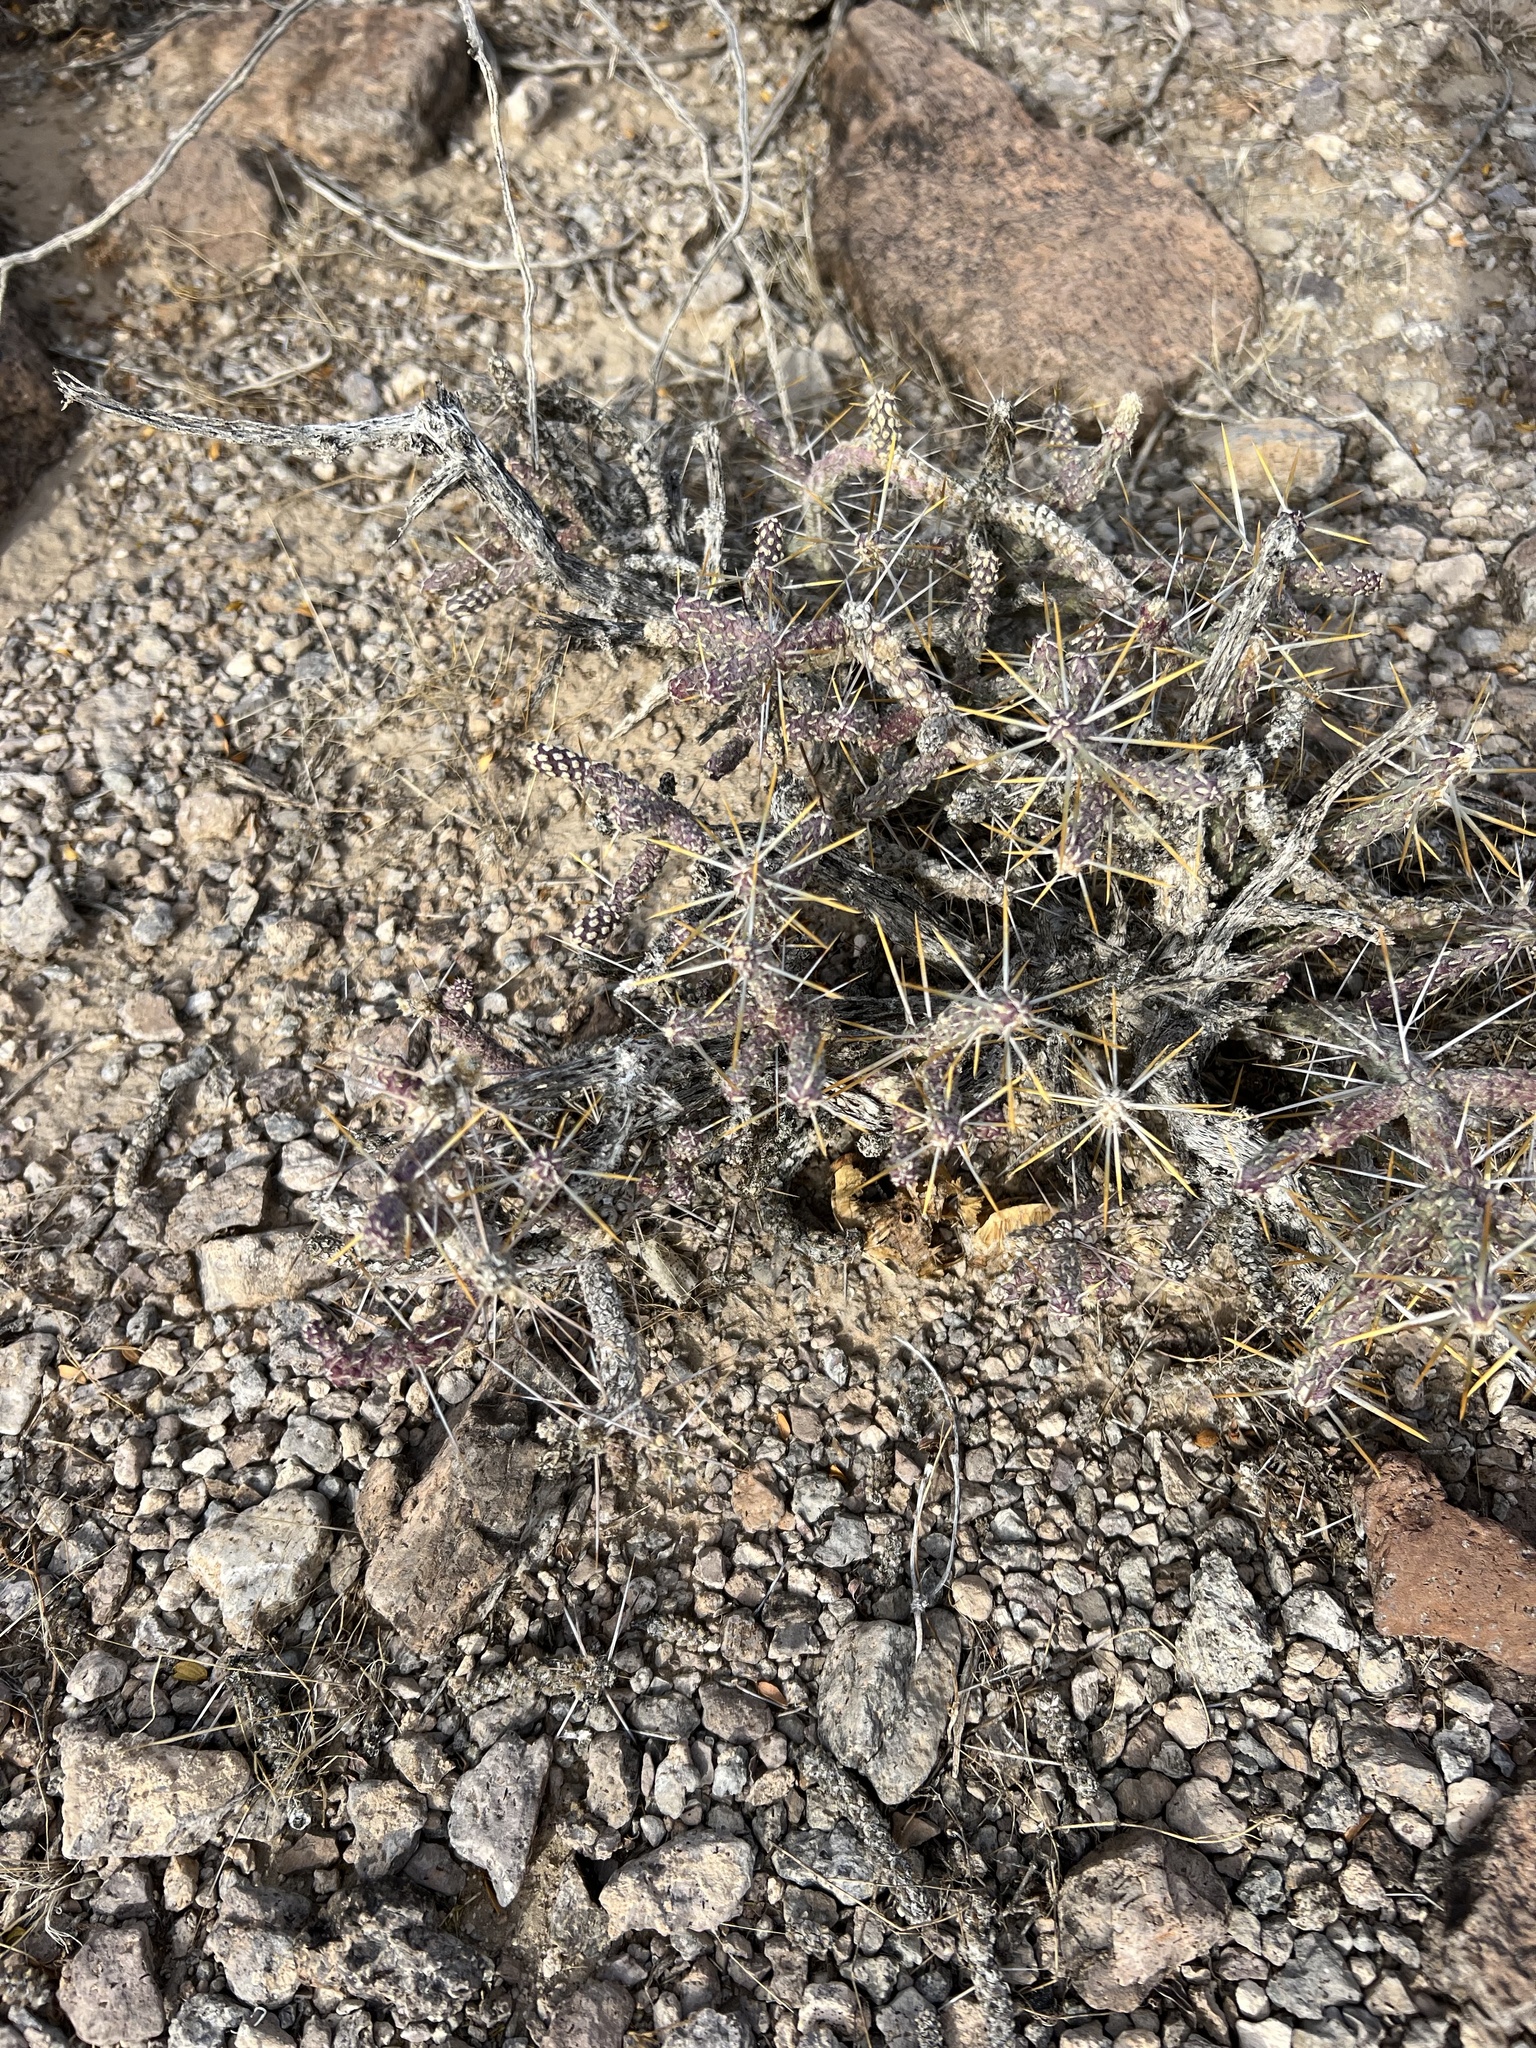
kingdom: Plantae
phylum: Tracheophyta
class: Magnoliopsida
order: Caryophyllales
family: Cactaceae
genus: Cylindropuntia
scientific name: Cylindropuntia ramosissima
